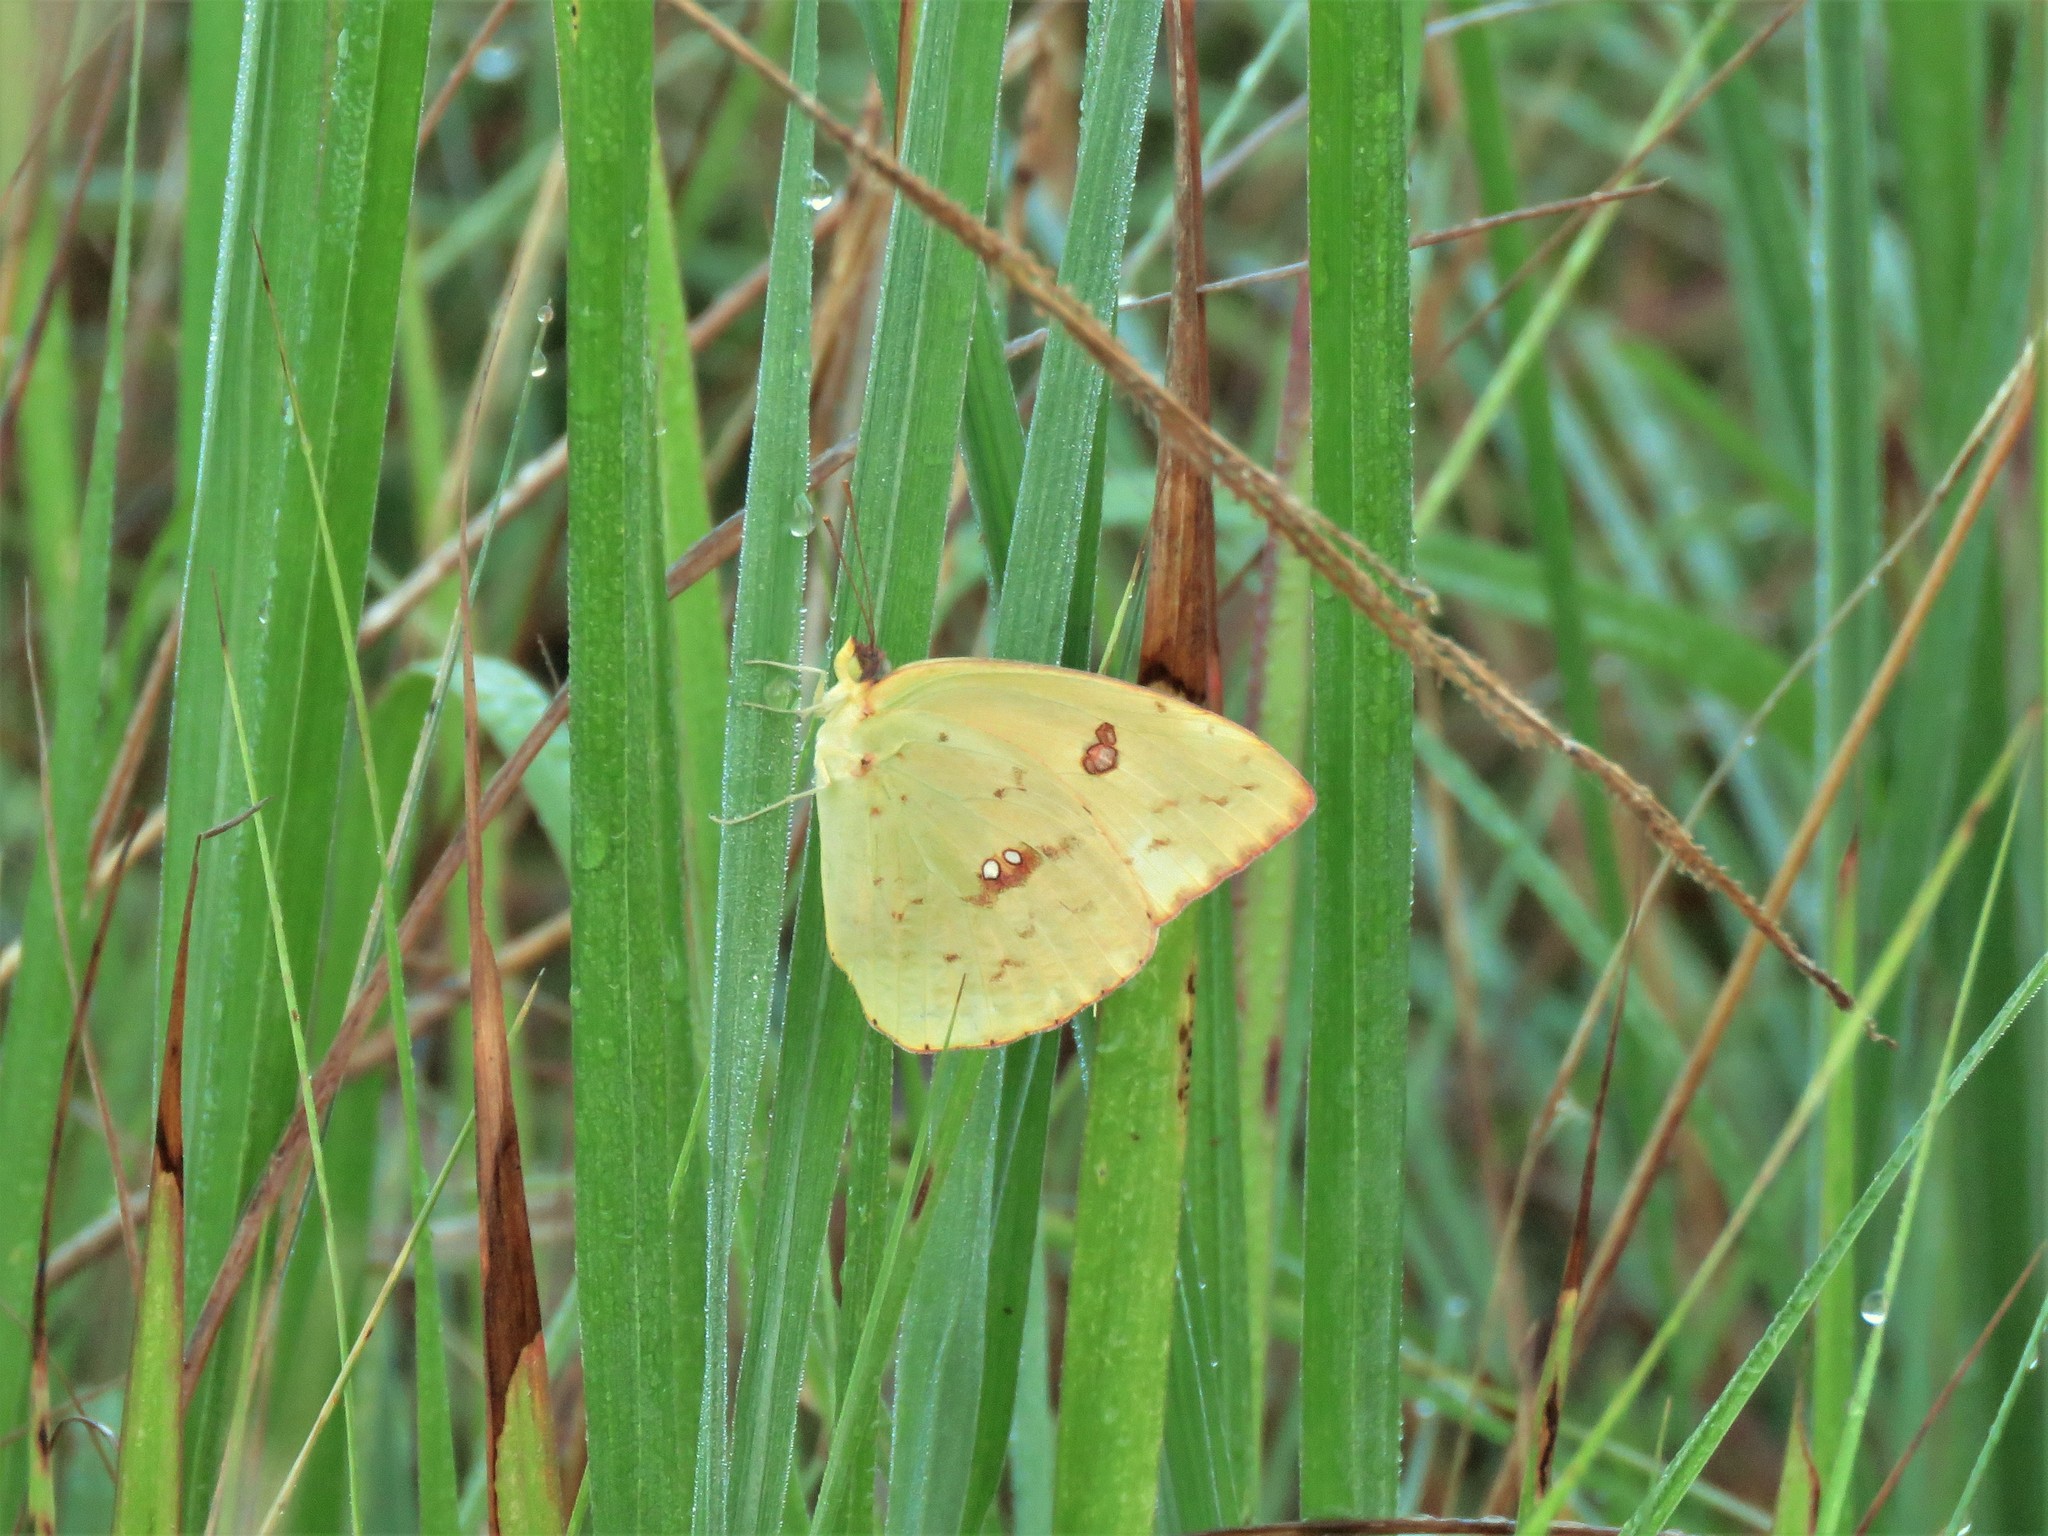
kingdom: Animalia
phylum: Arthropoda
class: Insecta
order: Lepidoptera
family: Pieridae
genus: Phoebis
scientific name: Phoebis sennae
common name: Cloudless sulphur
